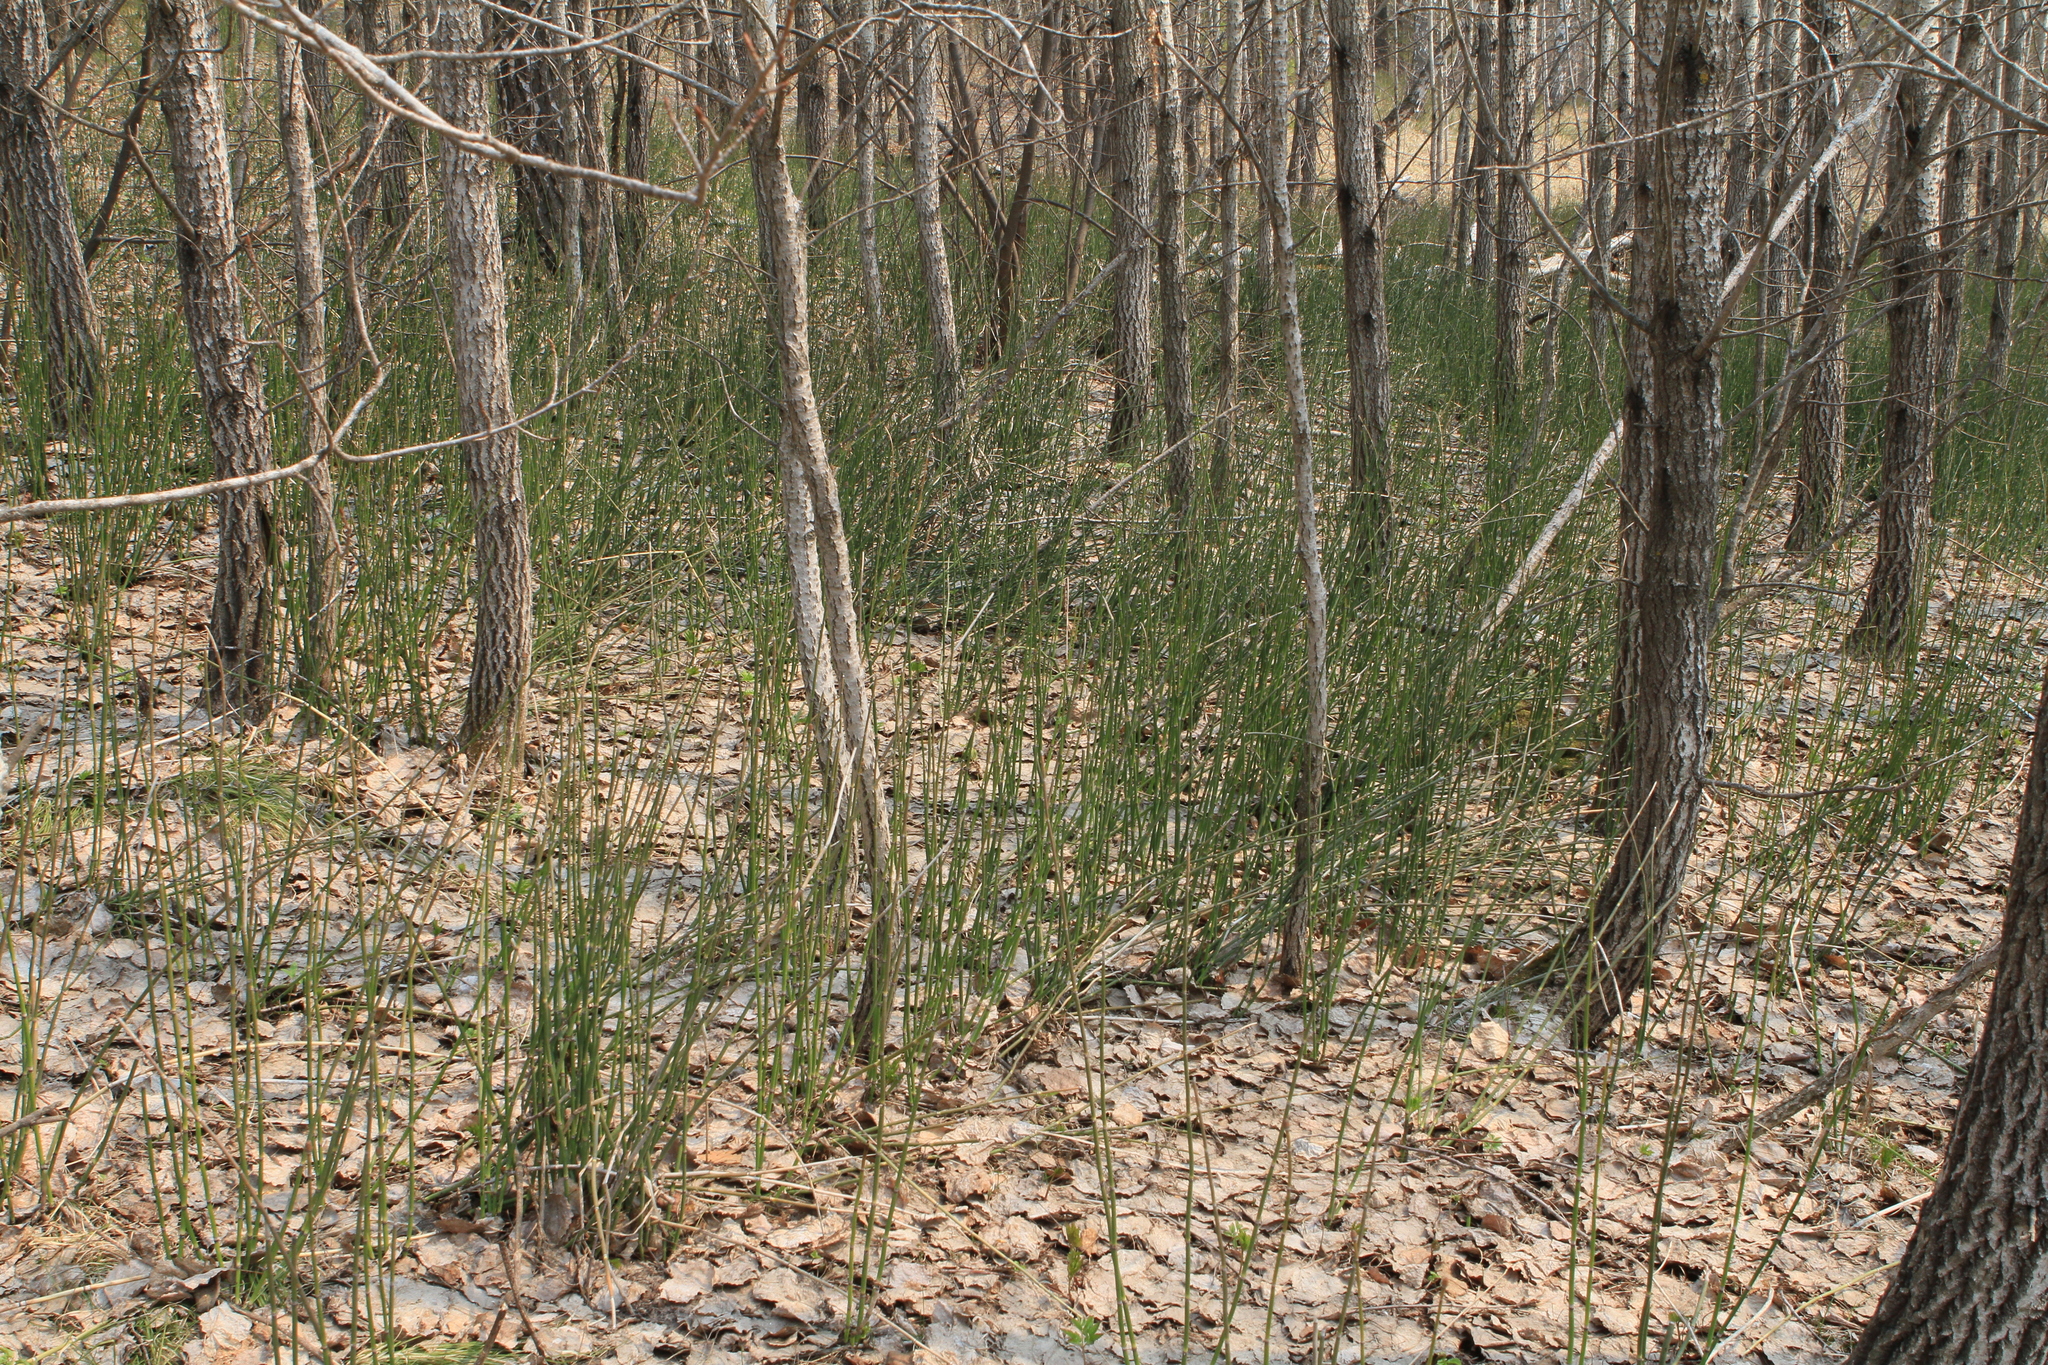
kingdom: Plantae
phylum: Tracheophyta
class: Magnoliopsida
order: Malpighiales
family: Salicaceae
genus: Populus
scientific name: Populus tremula
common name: European aspen
